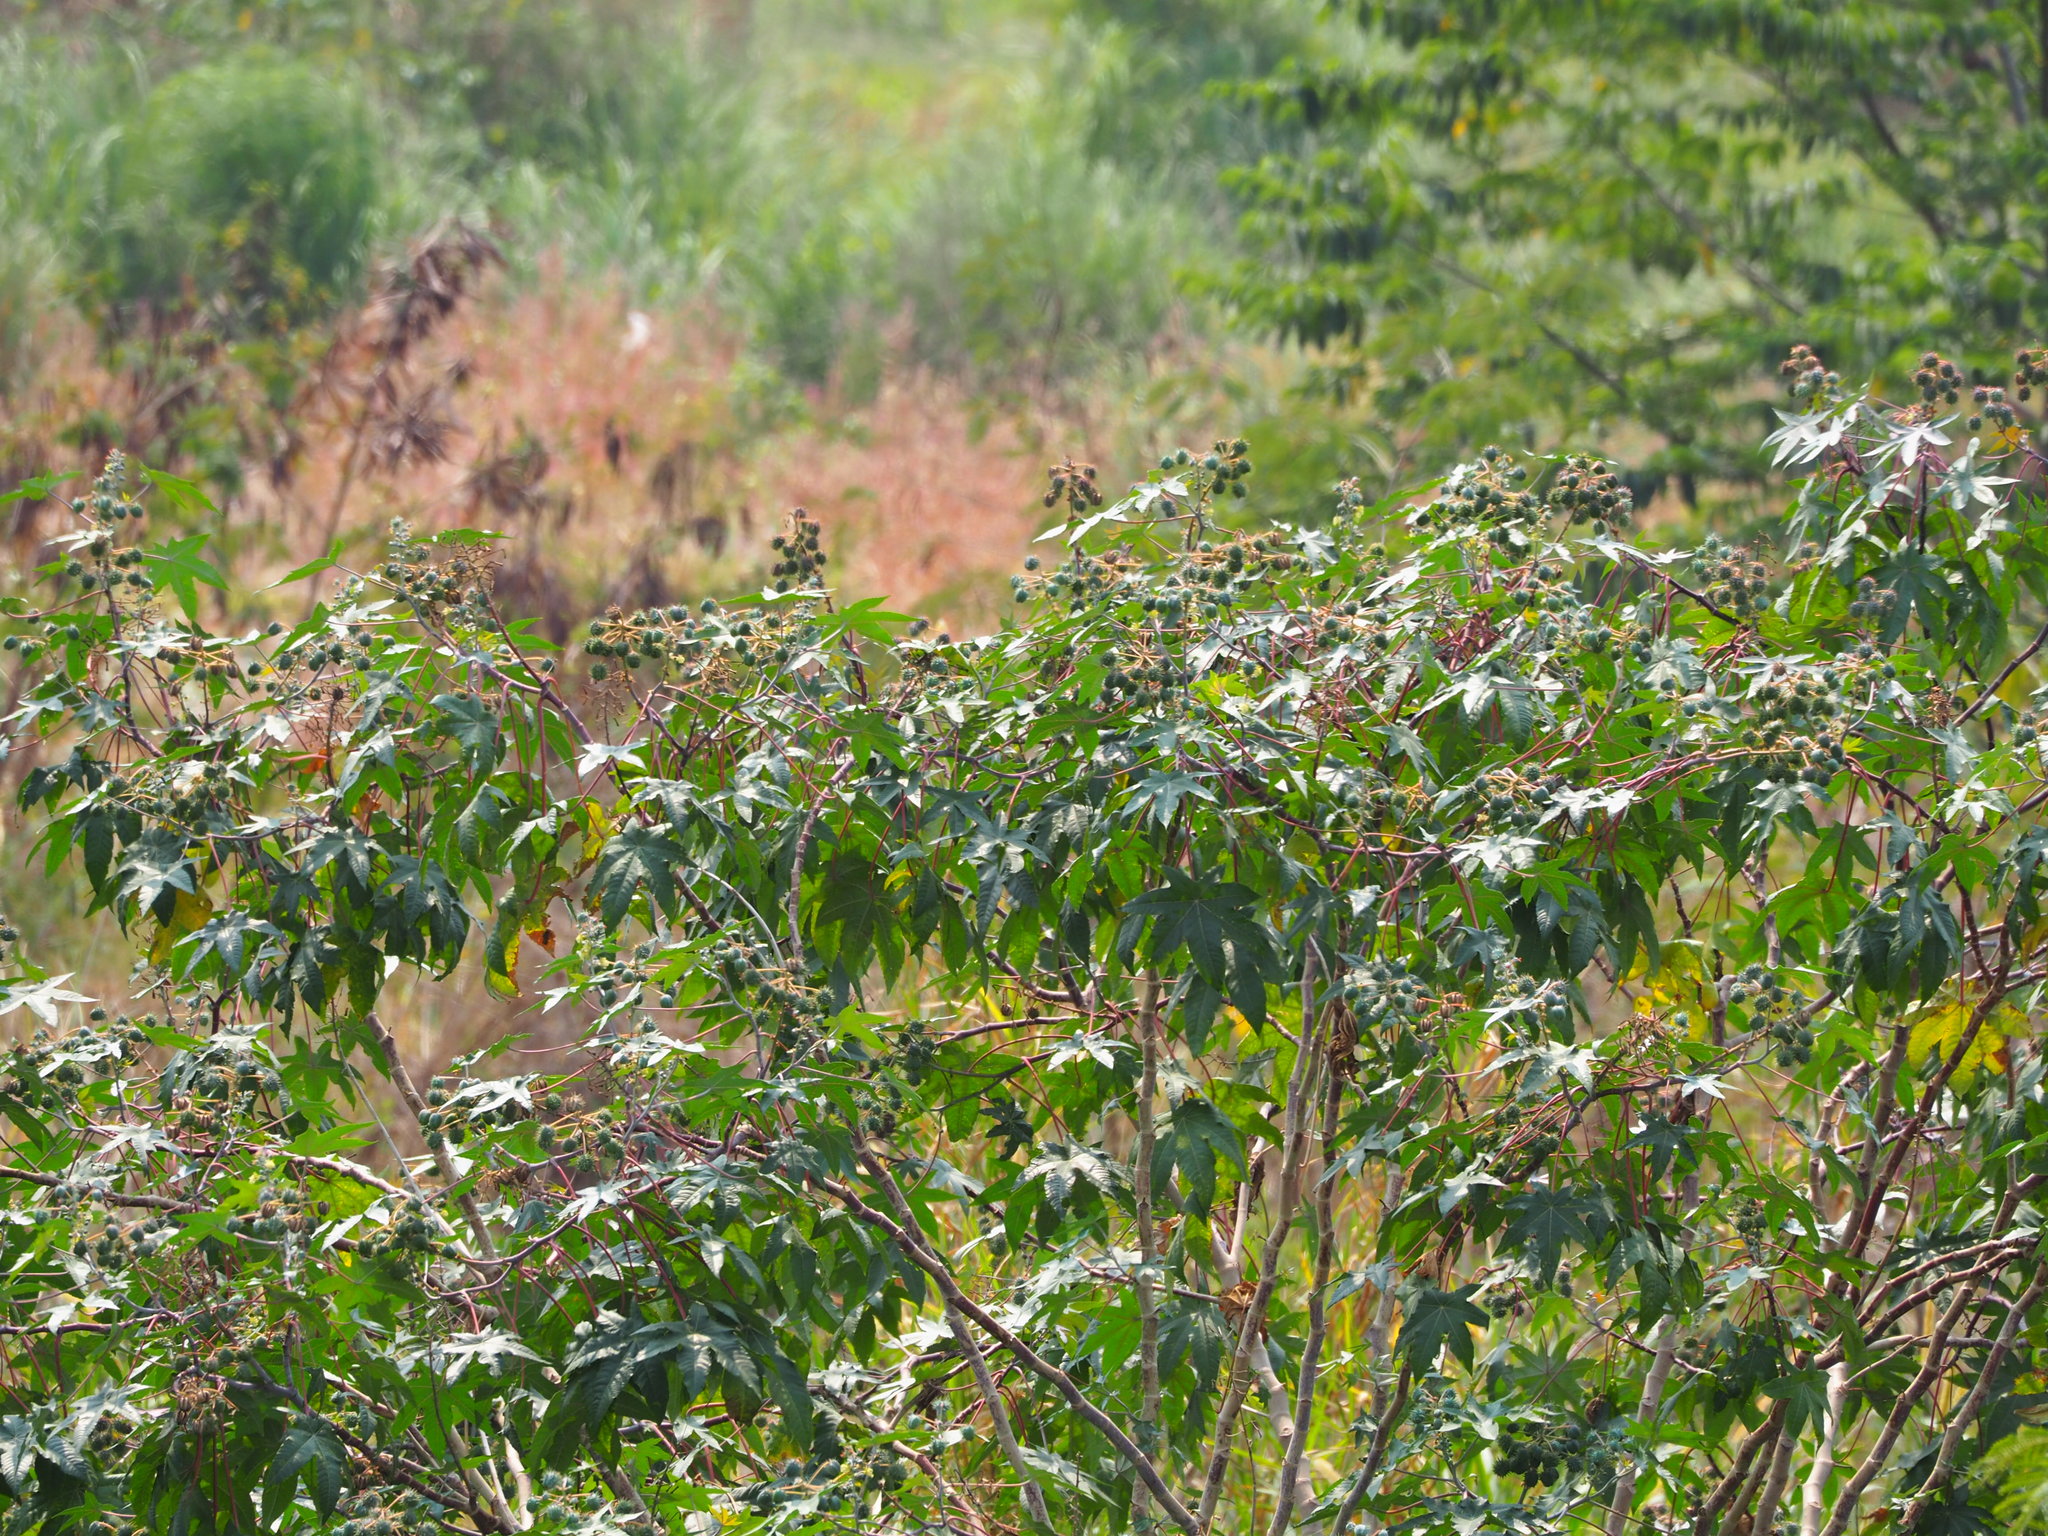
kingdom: Plantae
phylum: Tracheophyta
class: Magnoliopsida
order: Malpighiales
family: Euphorbiaceae
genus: Ricinus
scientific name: Ricinus communis
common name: Castor-oil-plant
